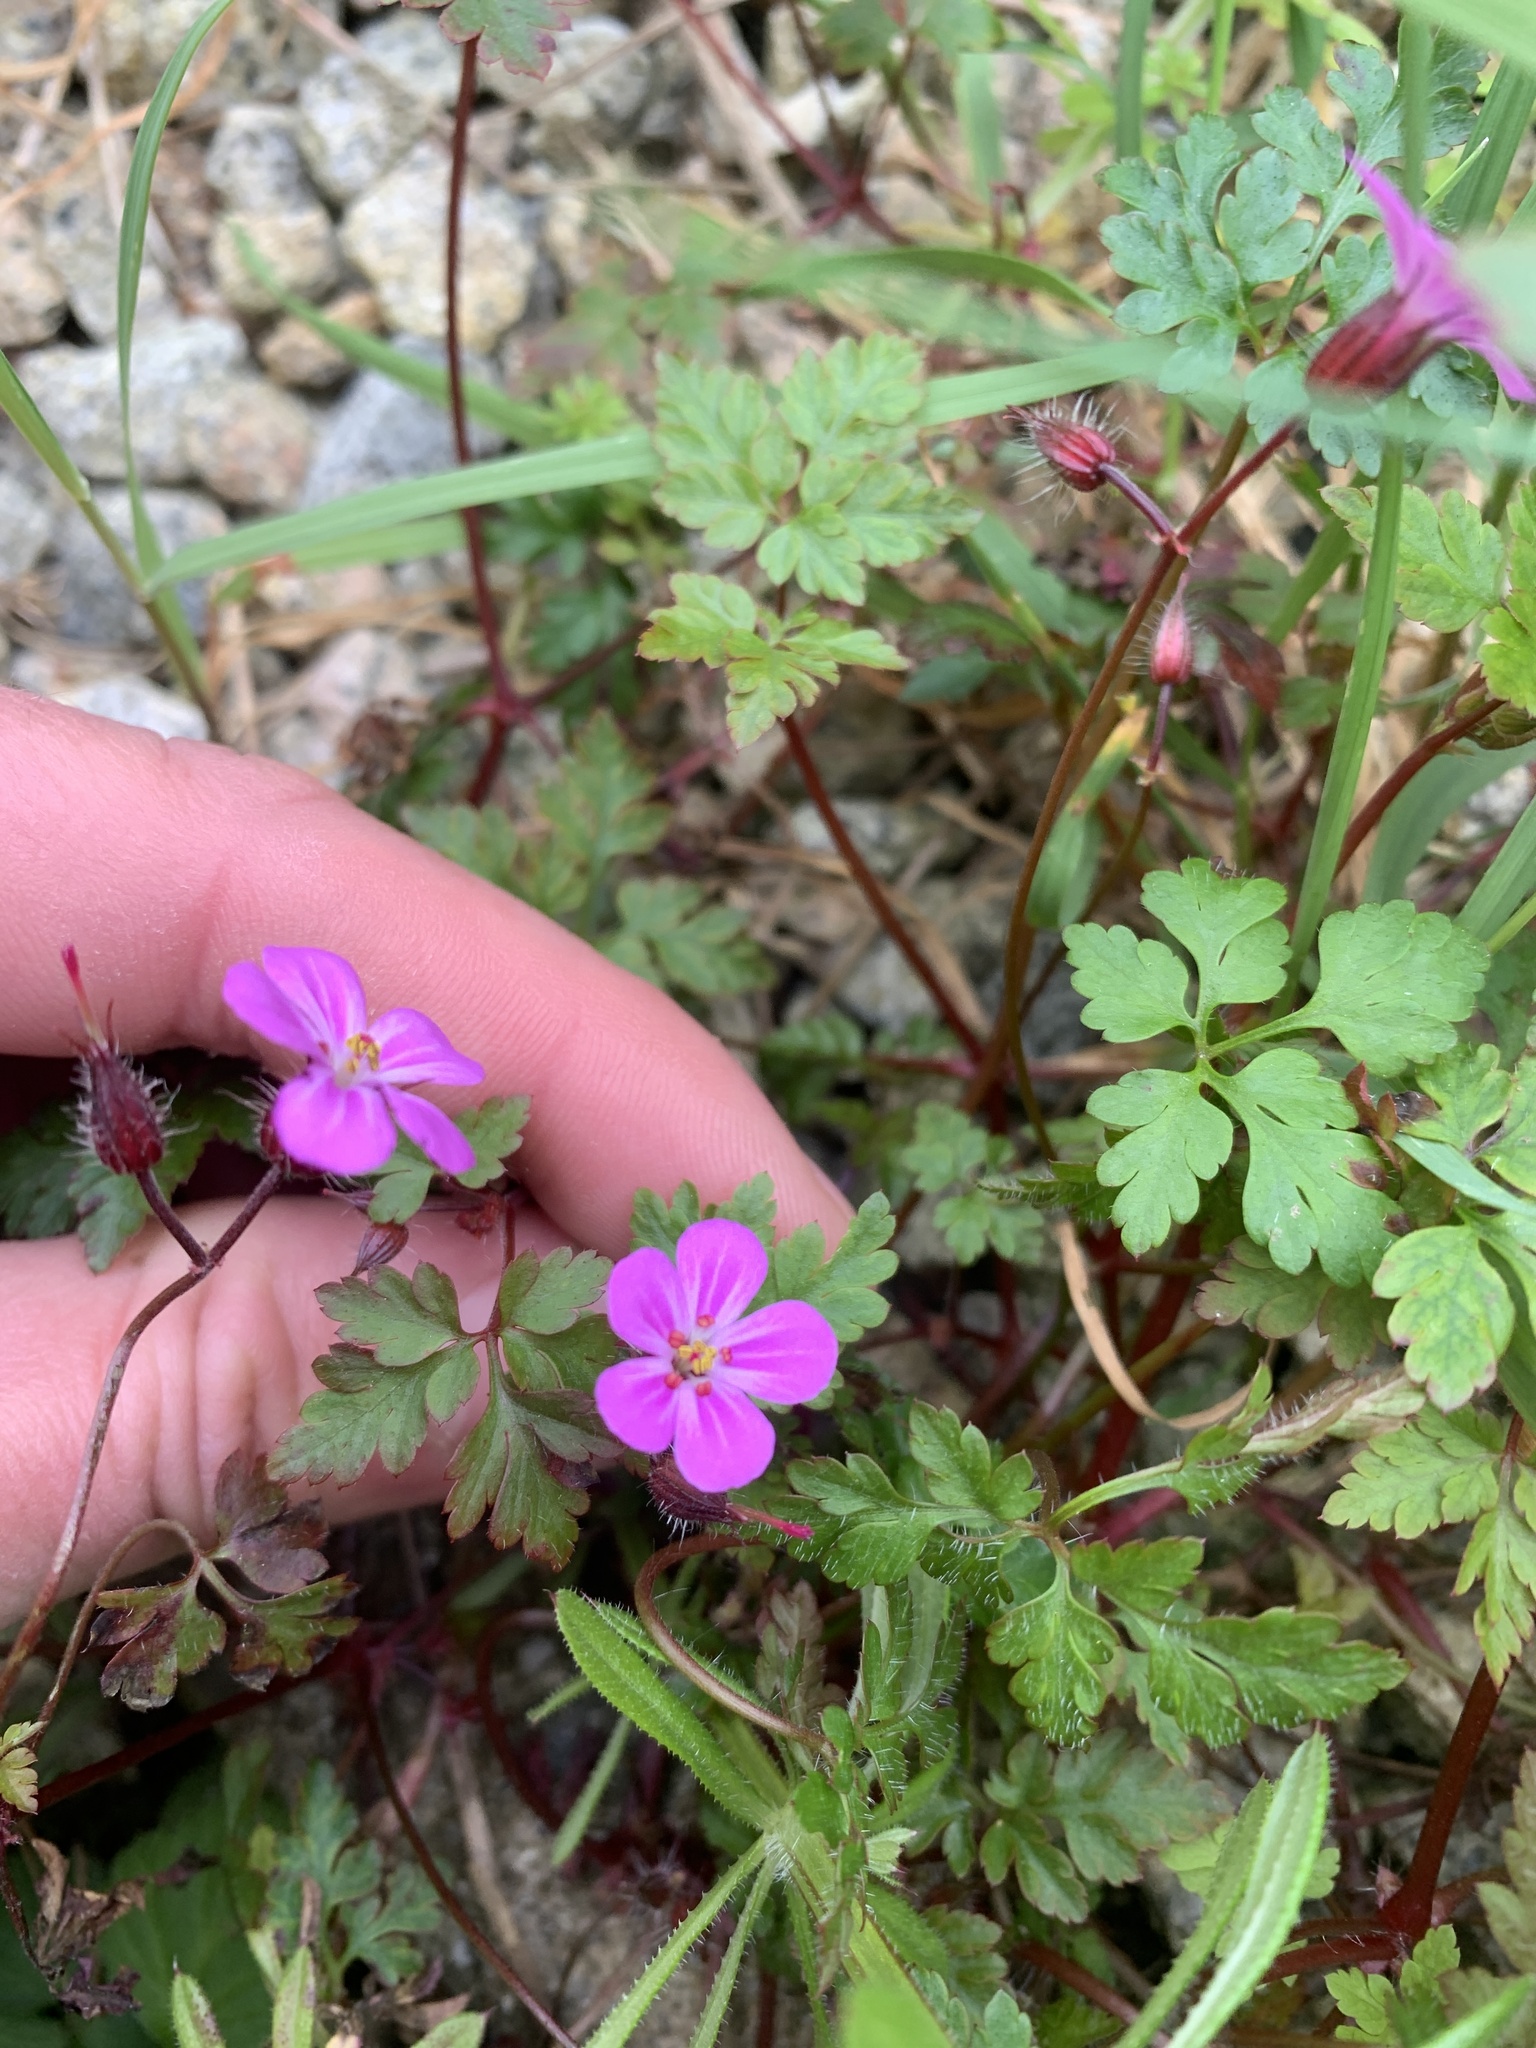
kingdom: Plantae
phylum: Tracheophyta
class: Magnoliopsida
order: Geraniales
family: Geraniaceae
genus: Geranium
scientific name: Geranium robertianum
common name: Herb-robert
